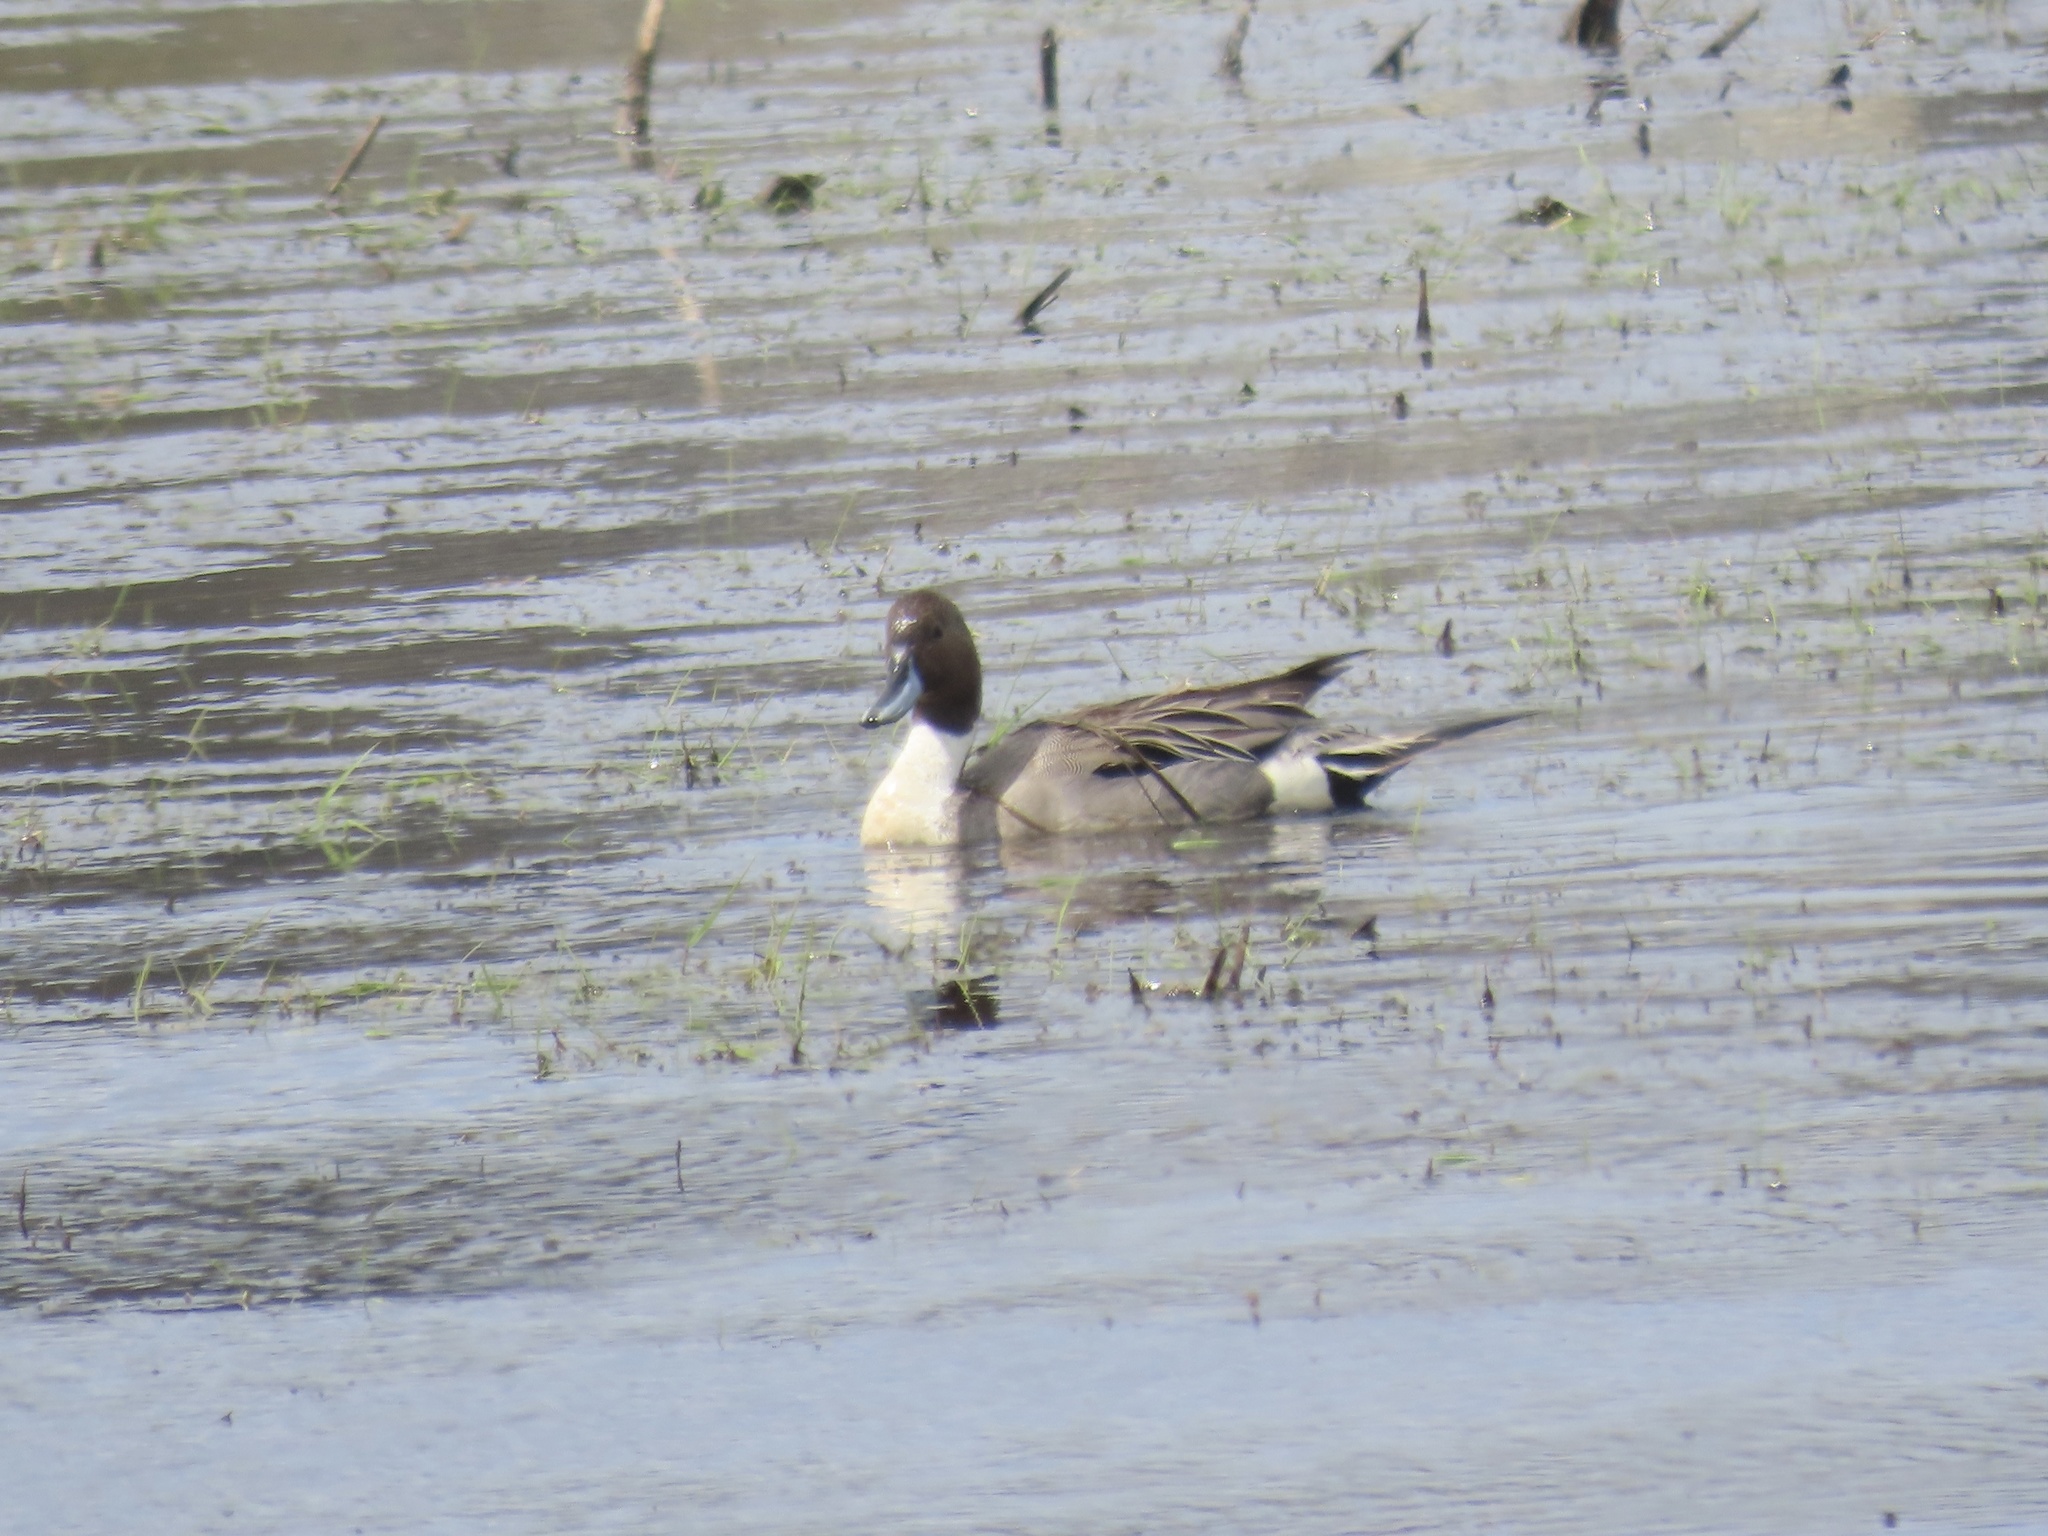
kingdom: Animalia
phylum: Chordata
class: Aves
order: Anseriformes
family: Anatidae
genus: Anas
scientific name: Anas acuta
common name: Northern pintail
